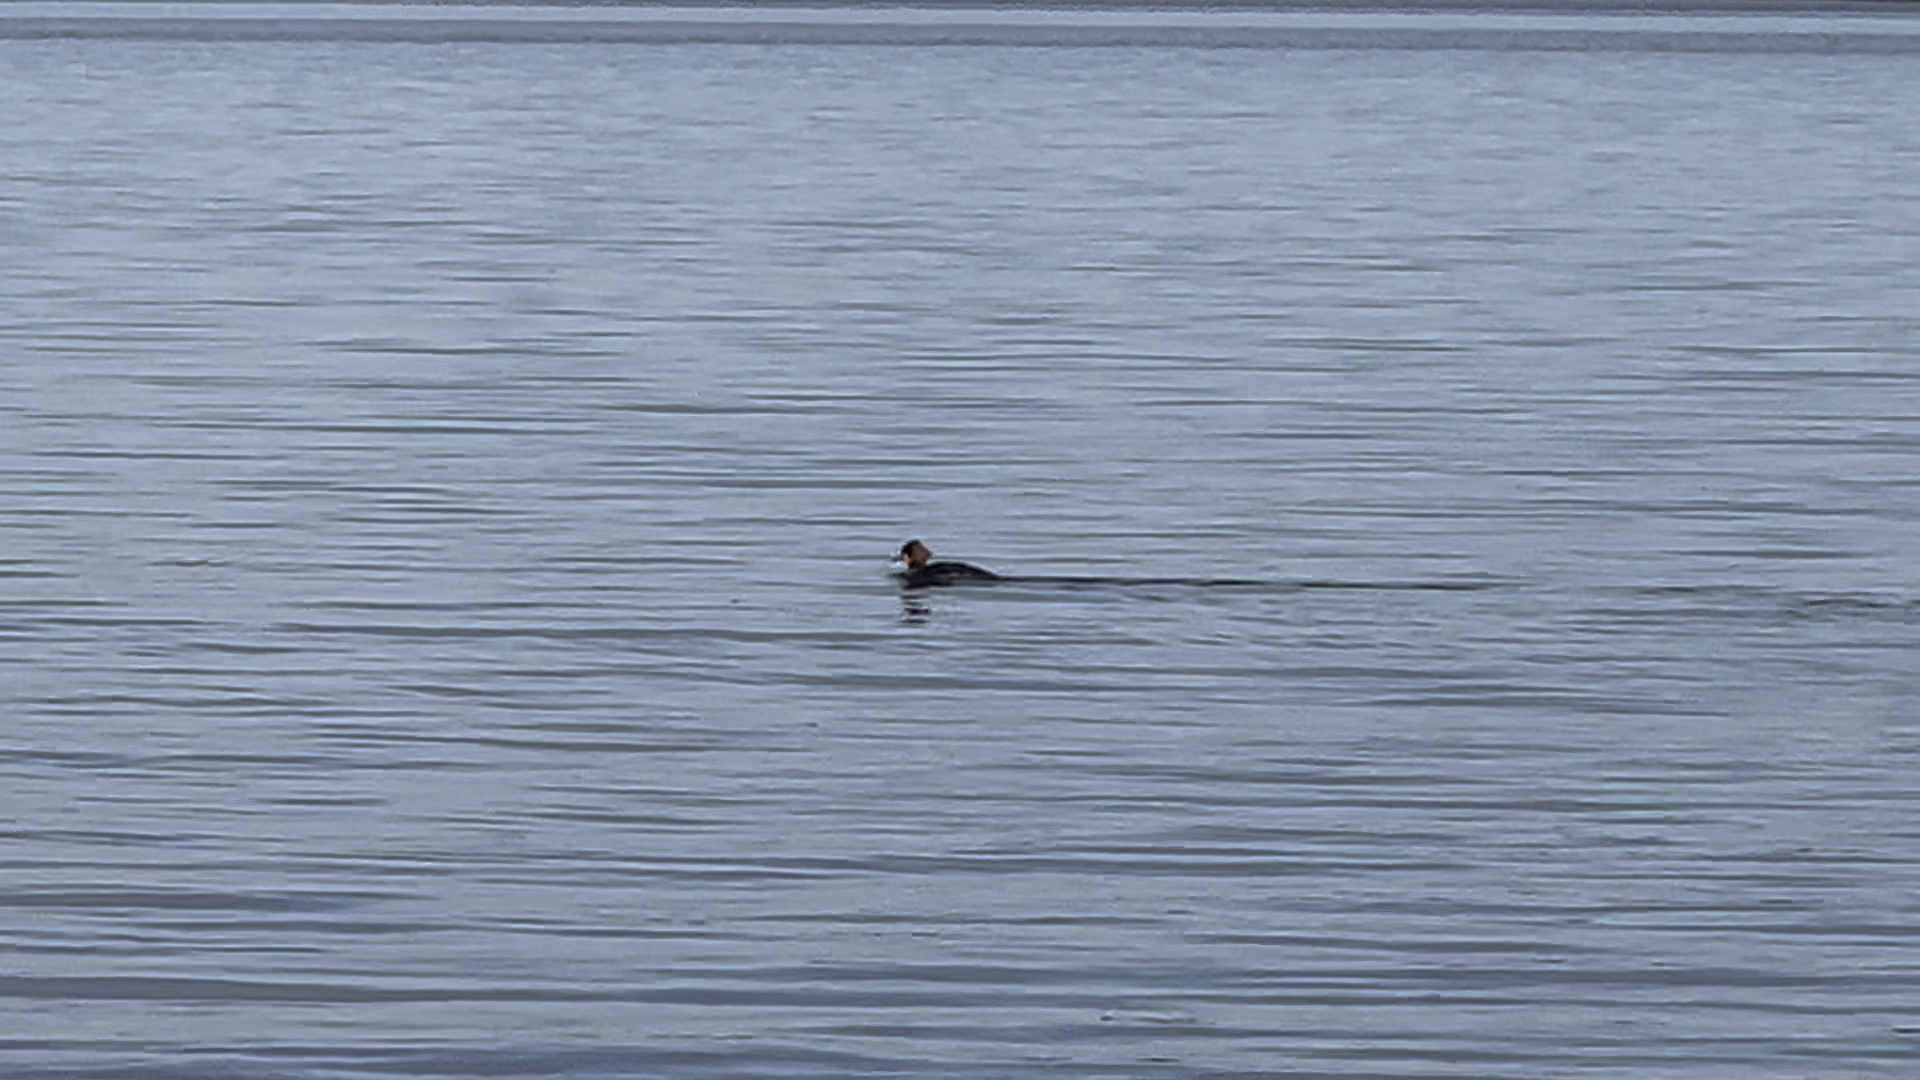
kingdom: Animalia
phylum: Chordata
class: Aves
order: Anseriformes
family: Anatidae
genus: Mergus
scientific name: Mergus merganser
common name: Common merganser
